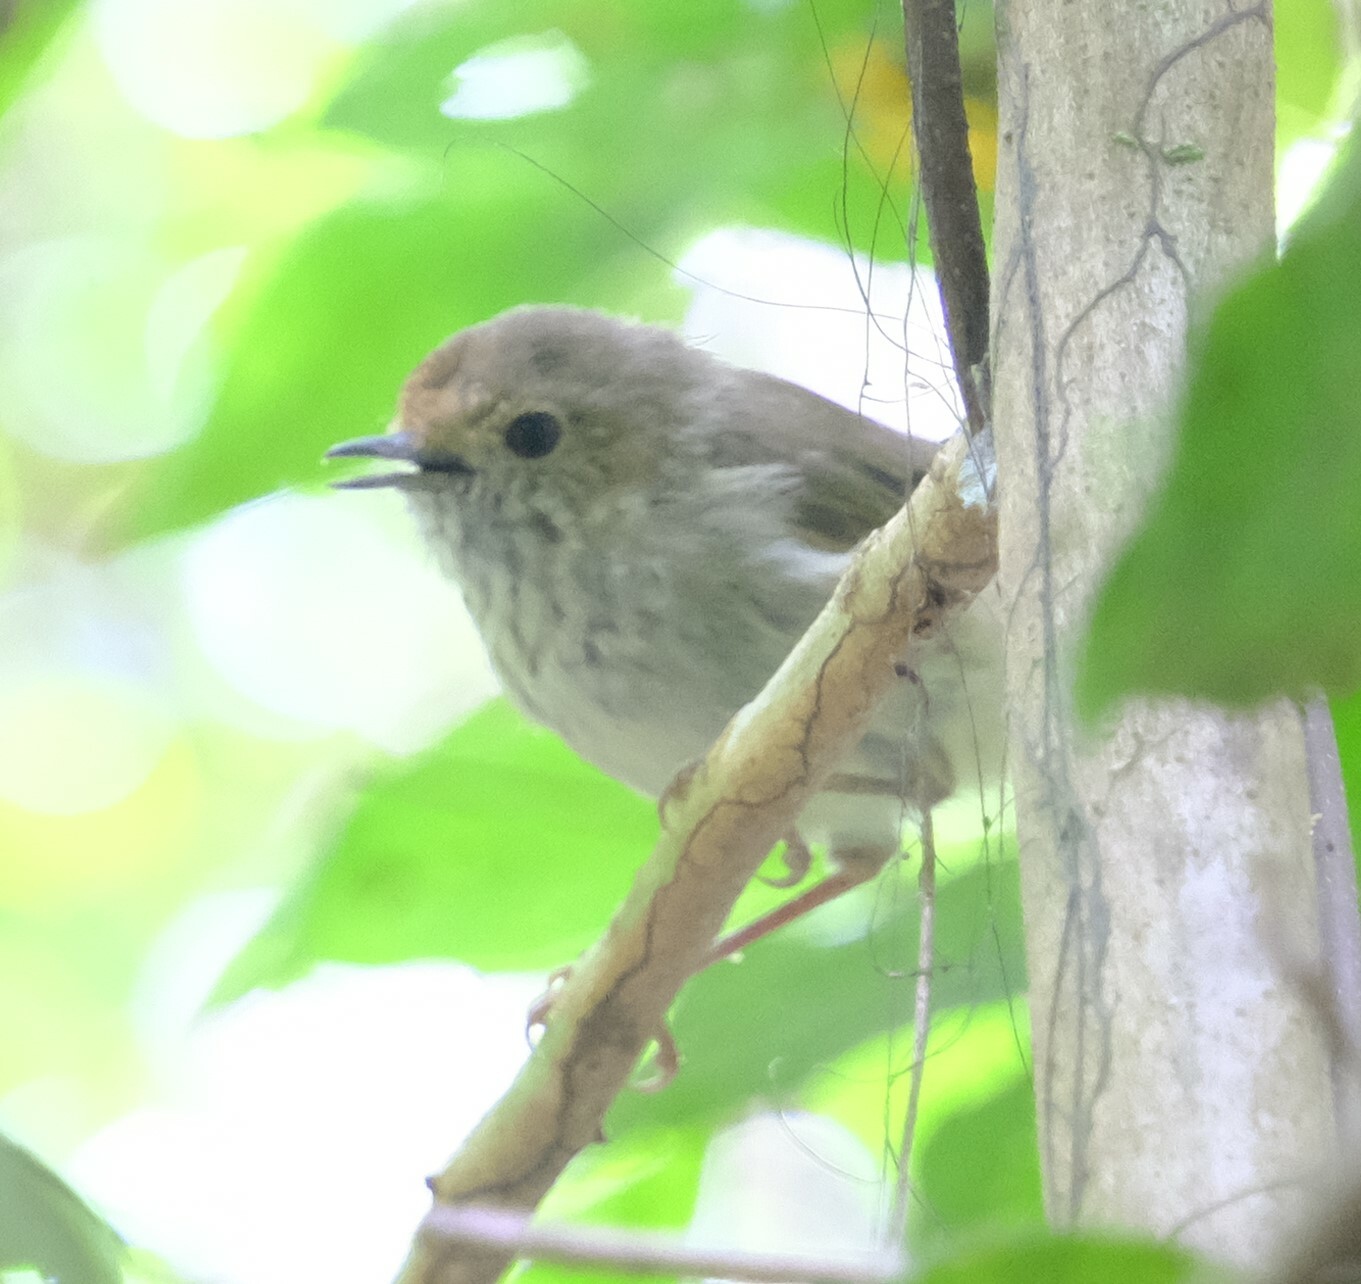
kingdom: Animalia
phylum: Chordata
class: Aves
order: Passeriformes
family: Acanthizidae
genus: Acanthiza
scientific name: Acanthiza pusilla
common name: Brown thornbill
